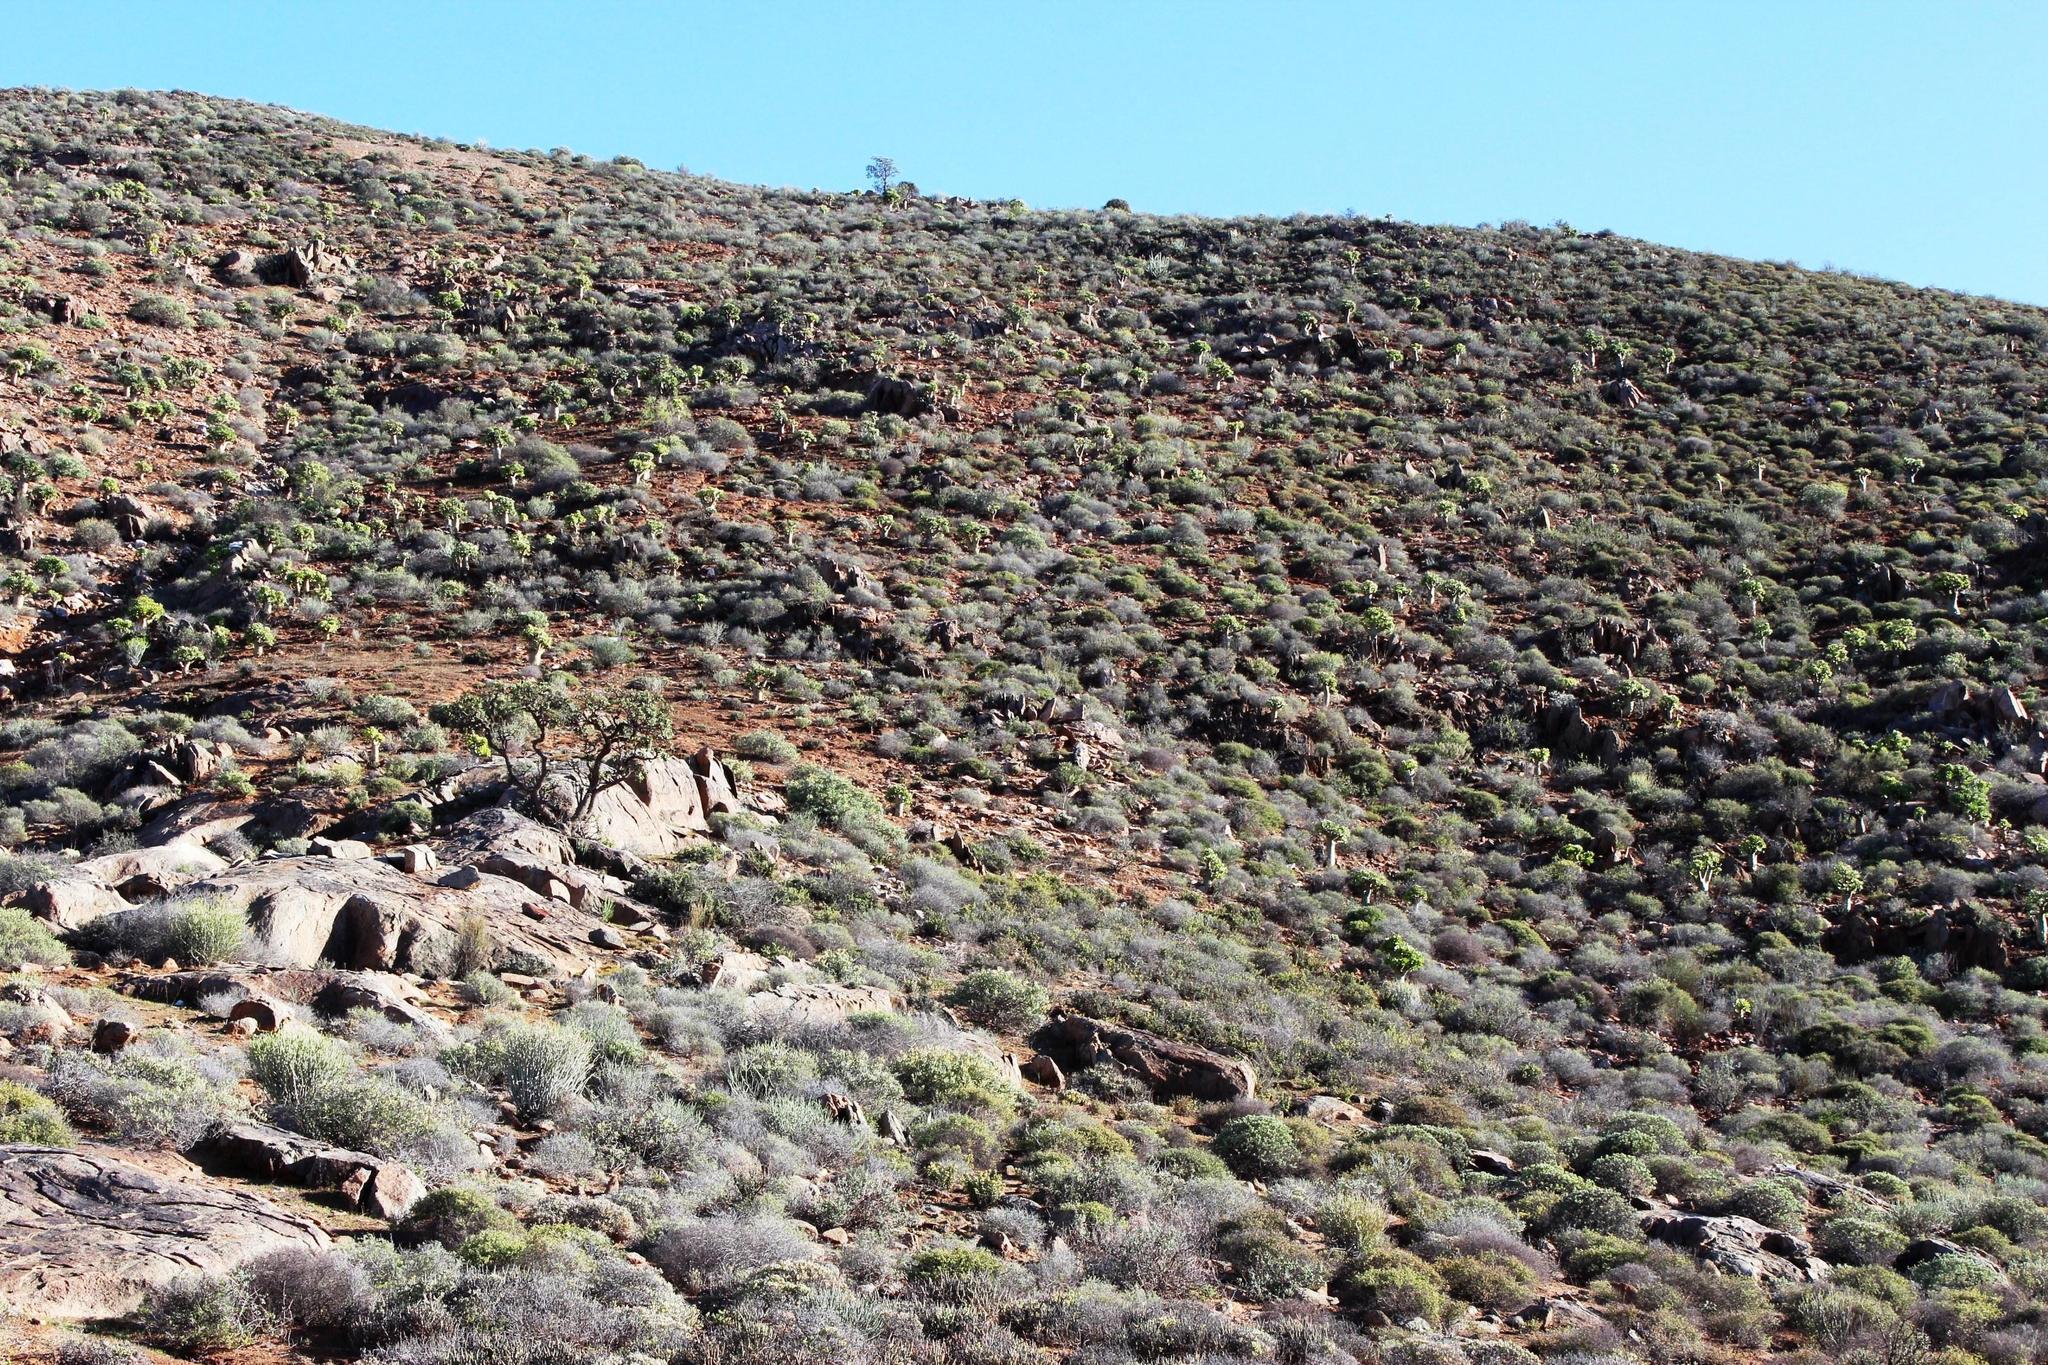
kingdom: Plantae
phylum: Tracheophyta
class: Magnoliopsida
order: Saxifragales
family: Crassulaceae
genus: Tylecodon
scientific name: Tylecodon paniculatus
